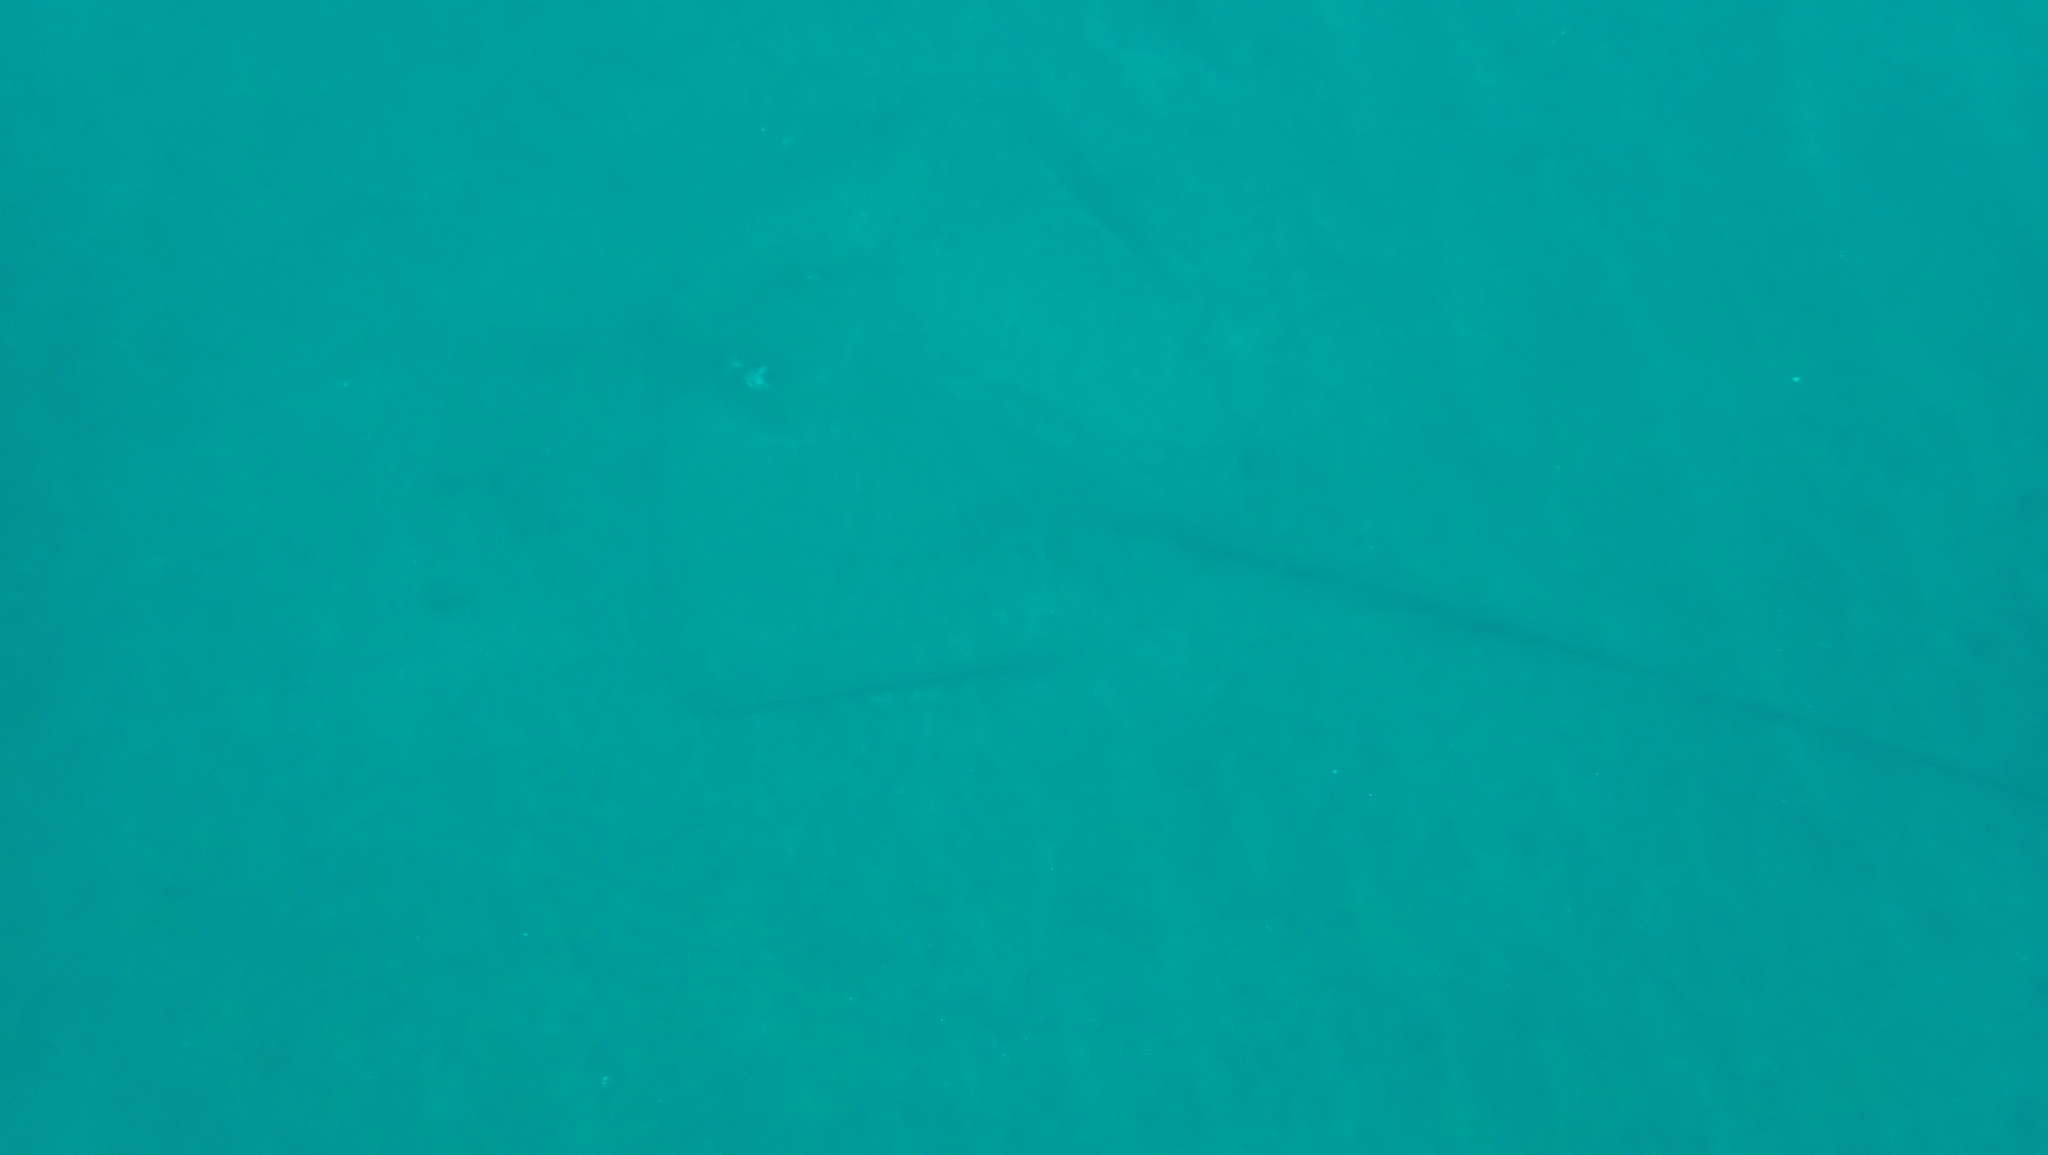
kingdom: Animalia
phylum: Chordata
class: Elasmobranchii
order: Myliobatiformes
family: Dasyatidae
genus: Hypanus
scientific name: Hypanus longus
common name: Longtail stingray
